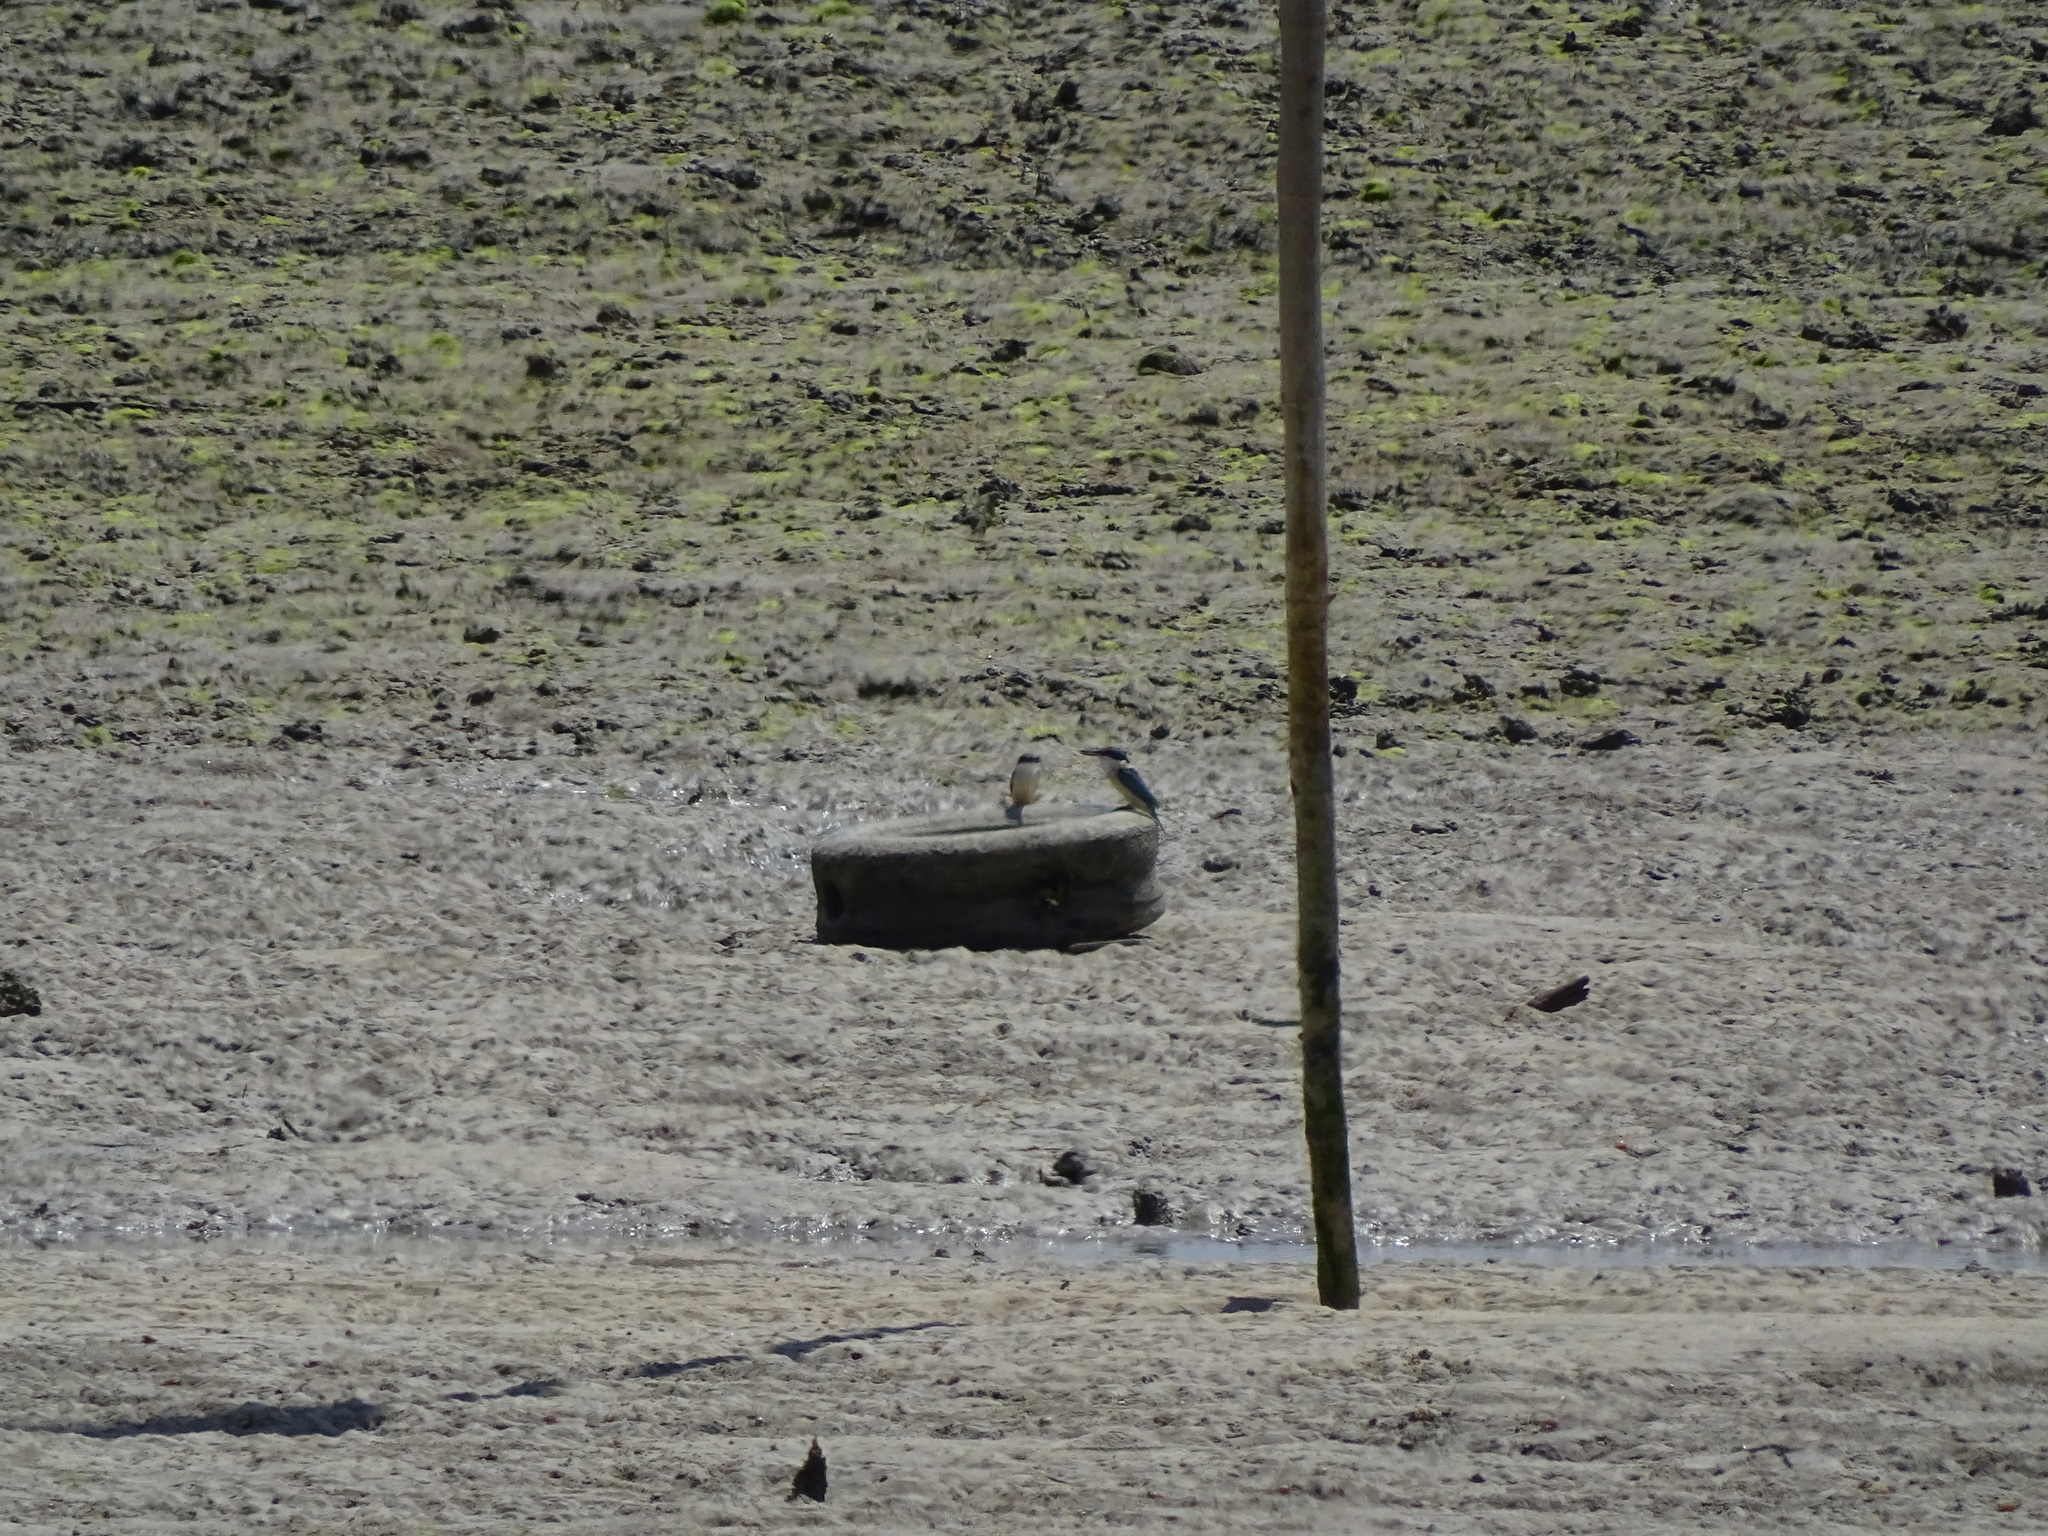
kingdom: Animalia
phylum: Chordata
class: Aves
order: Coraciiformes
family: Alcedinidae
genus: Todiramphus
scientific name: Todiramphus sanctus
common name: Sacred kingfisher
